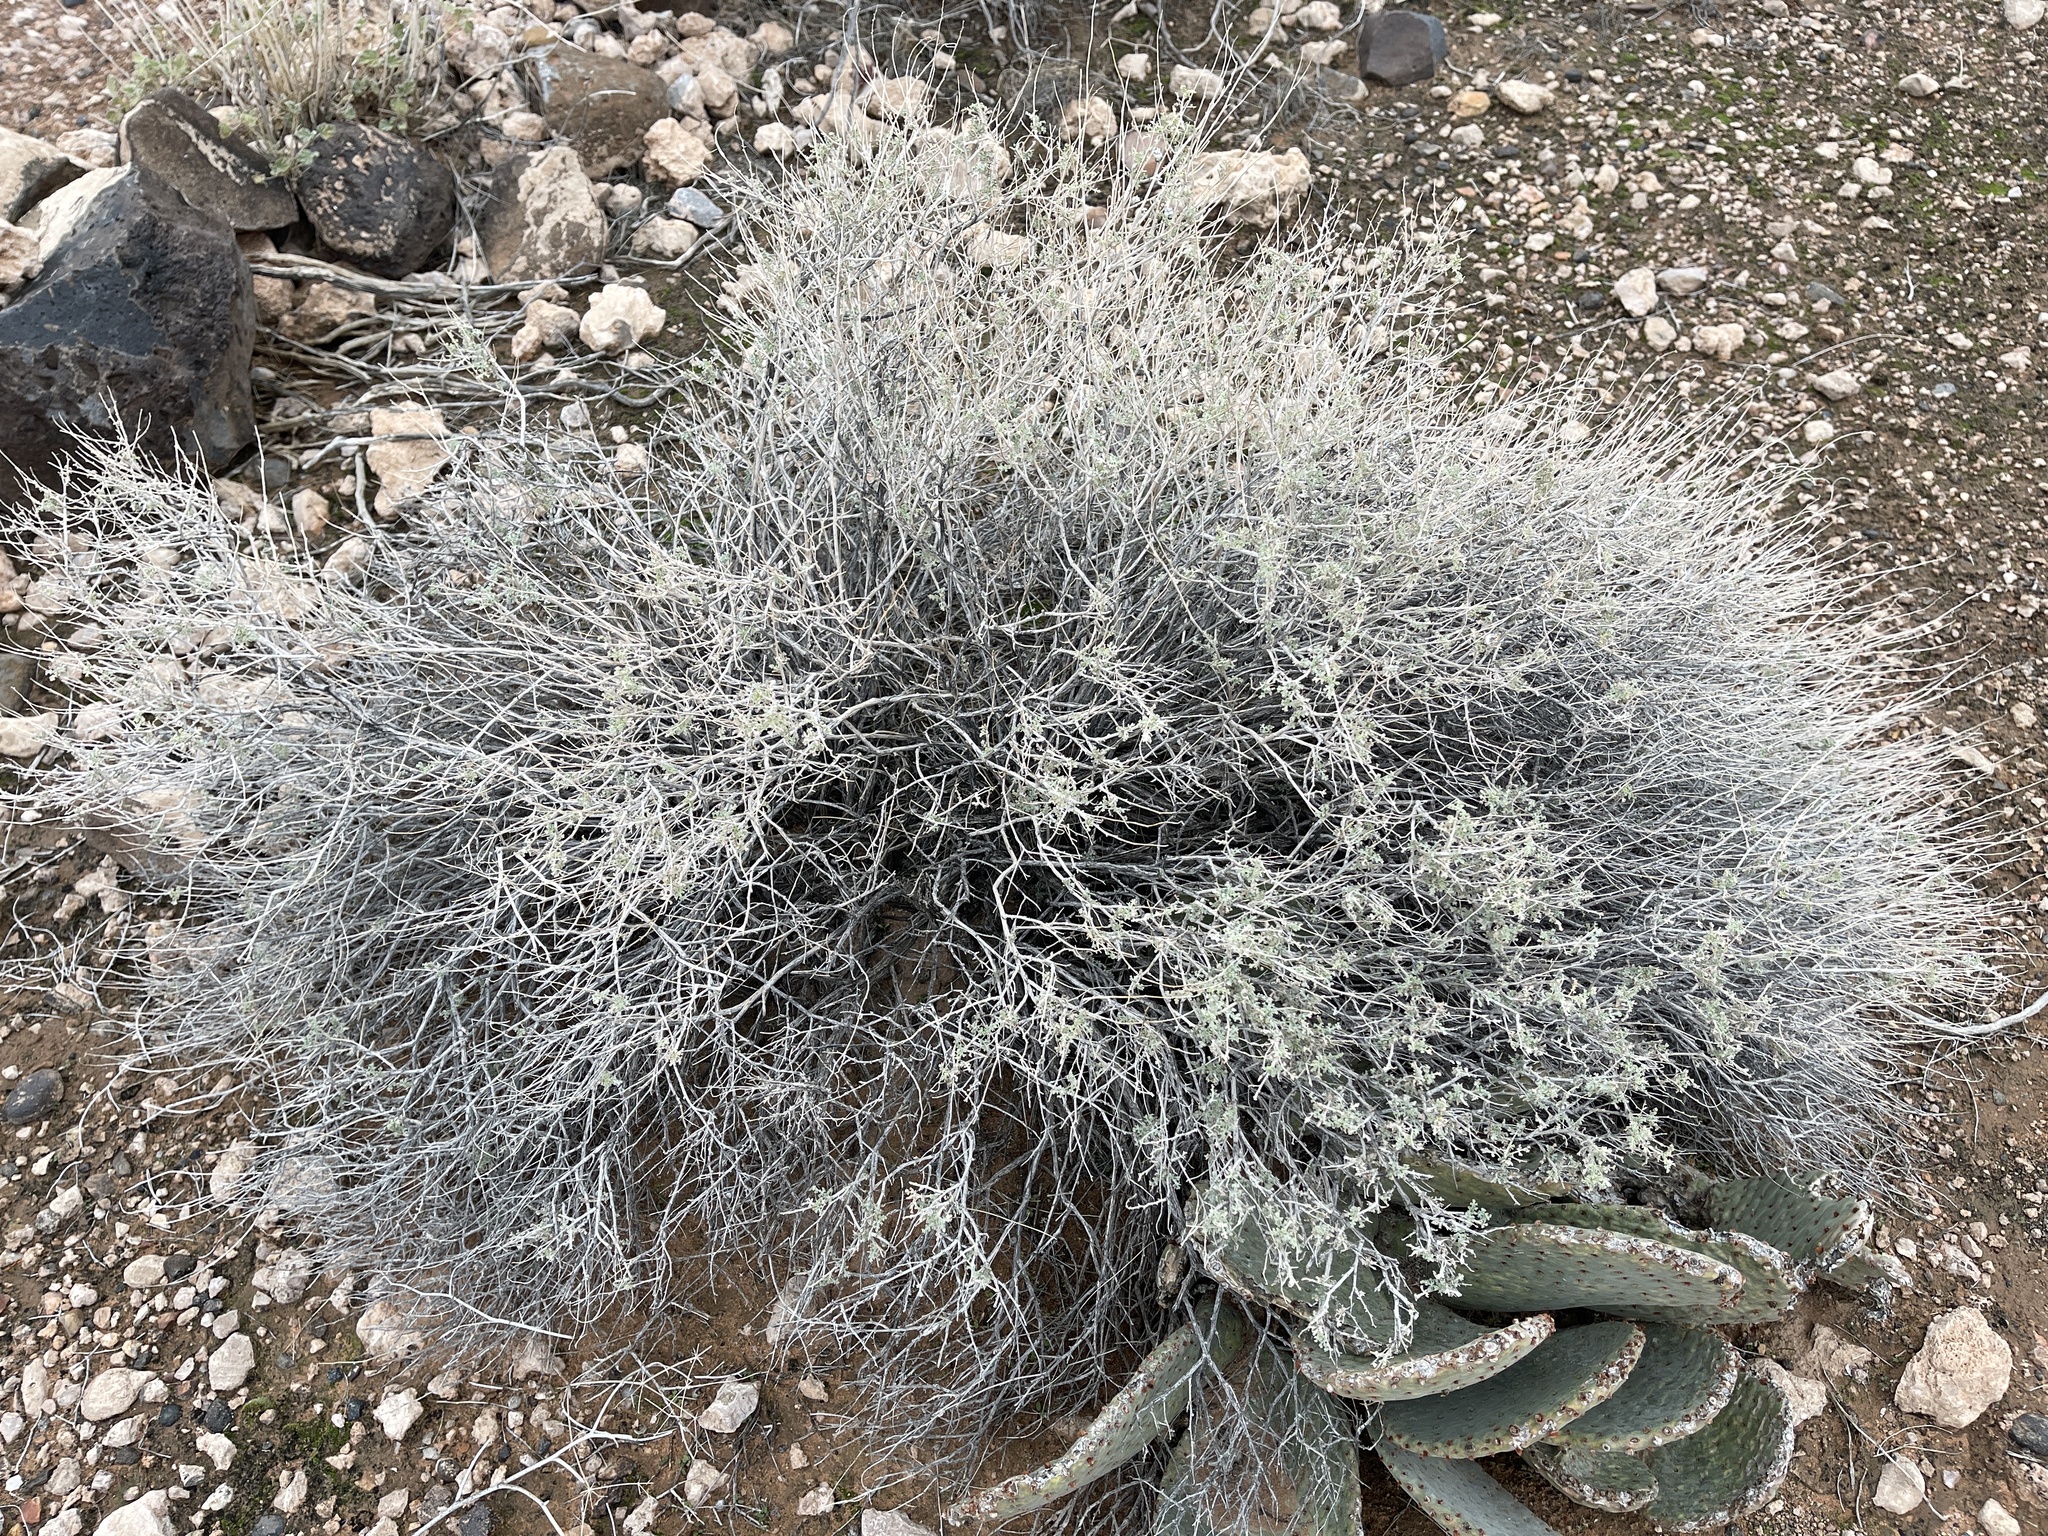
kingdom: Plantae
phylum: Tracheophyta
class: Magnoliopsida
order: Asterales
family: Asteraceae
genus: Ambrosia
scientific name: Ambrosia dumosa
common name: Bur-sage
